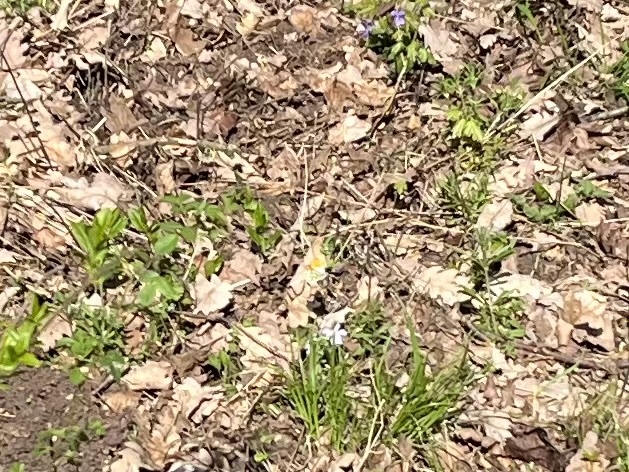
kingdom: Animalia
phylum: Arthropoda
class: Insecta
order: Lepidoptera
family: Pieridae
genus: Anthocharis
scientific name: Anthocharis cardamines
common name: Orange-tip
